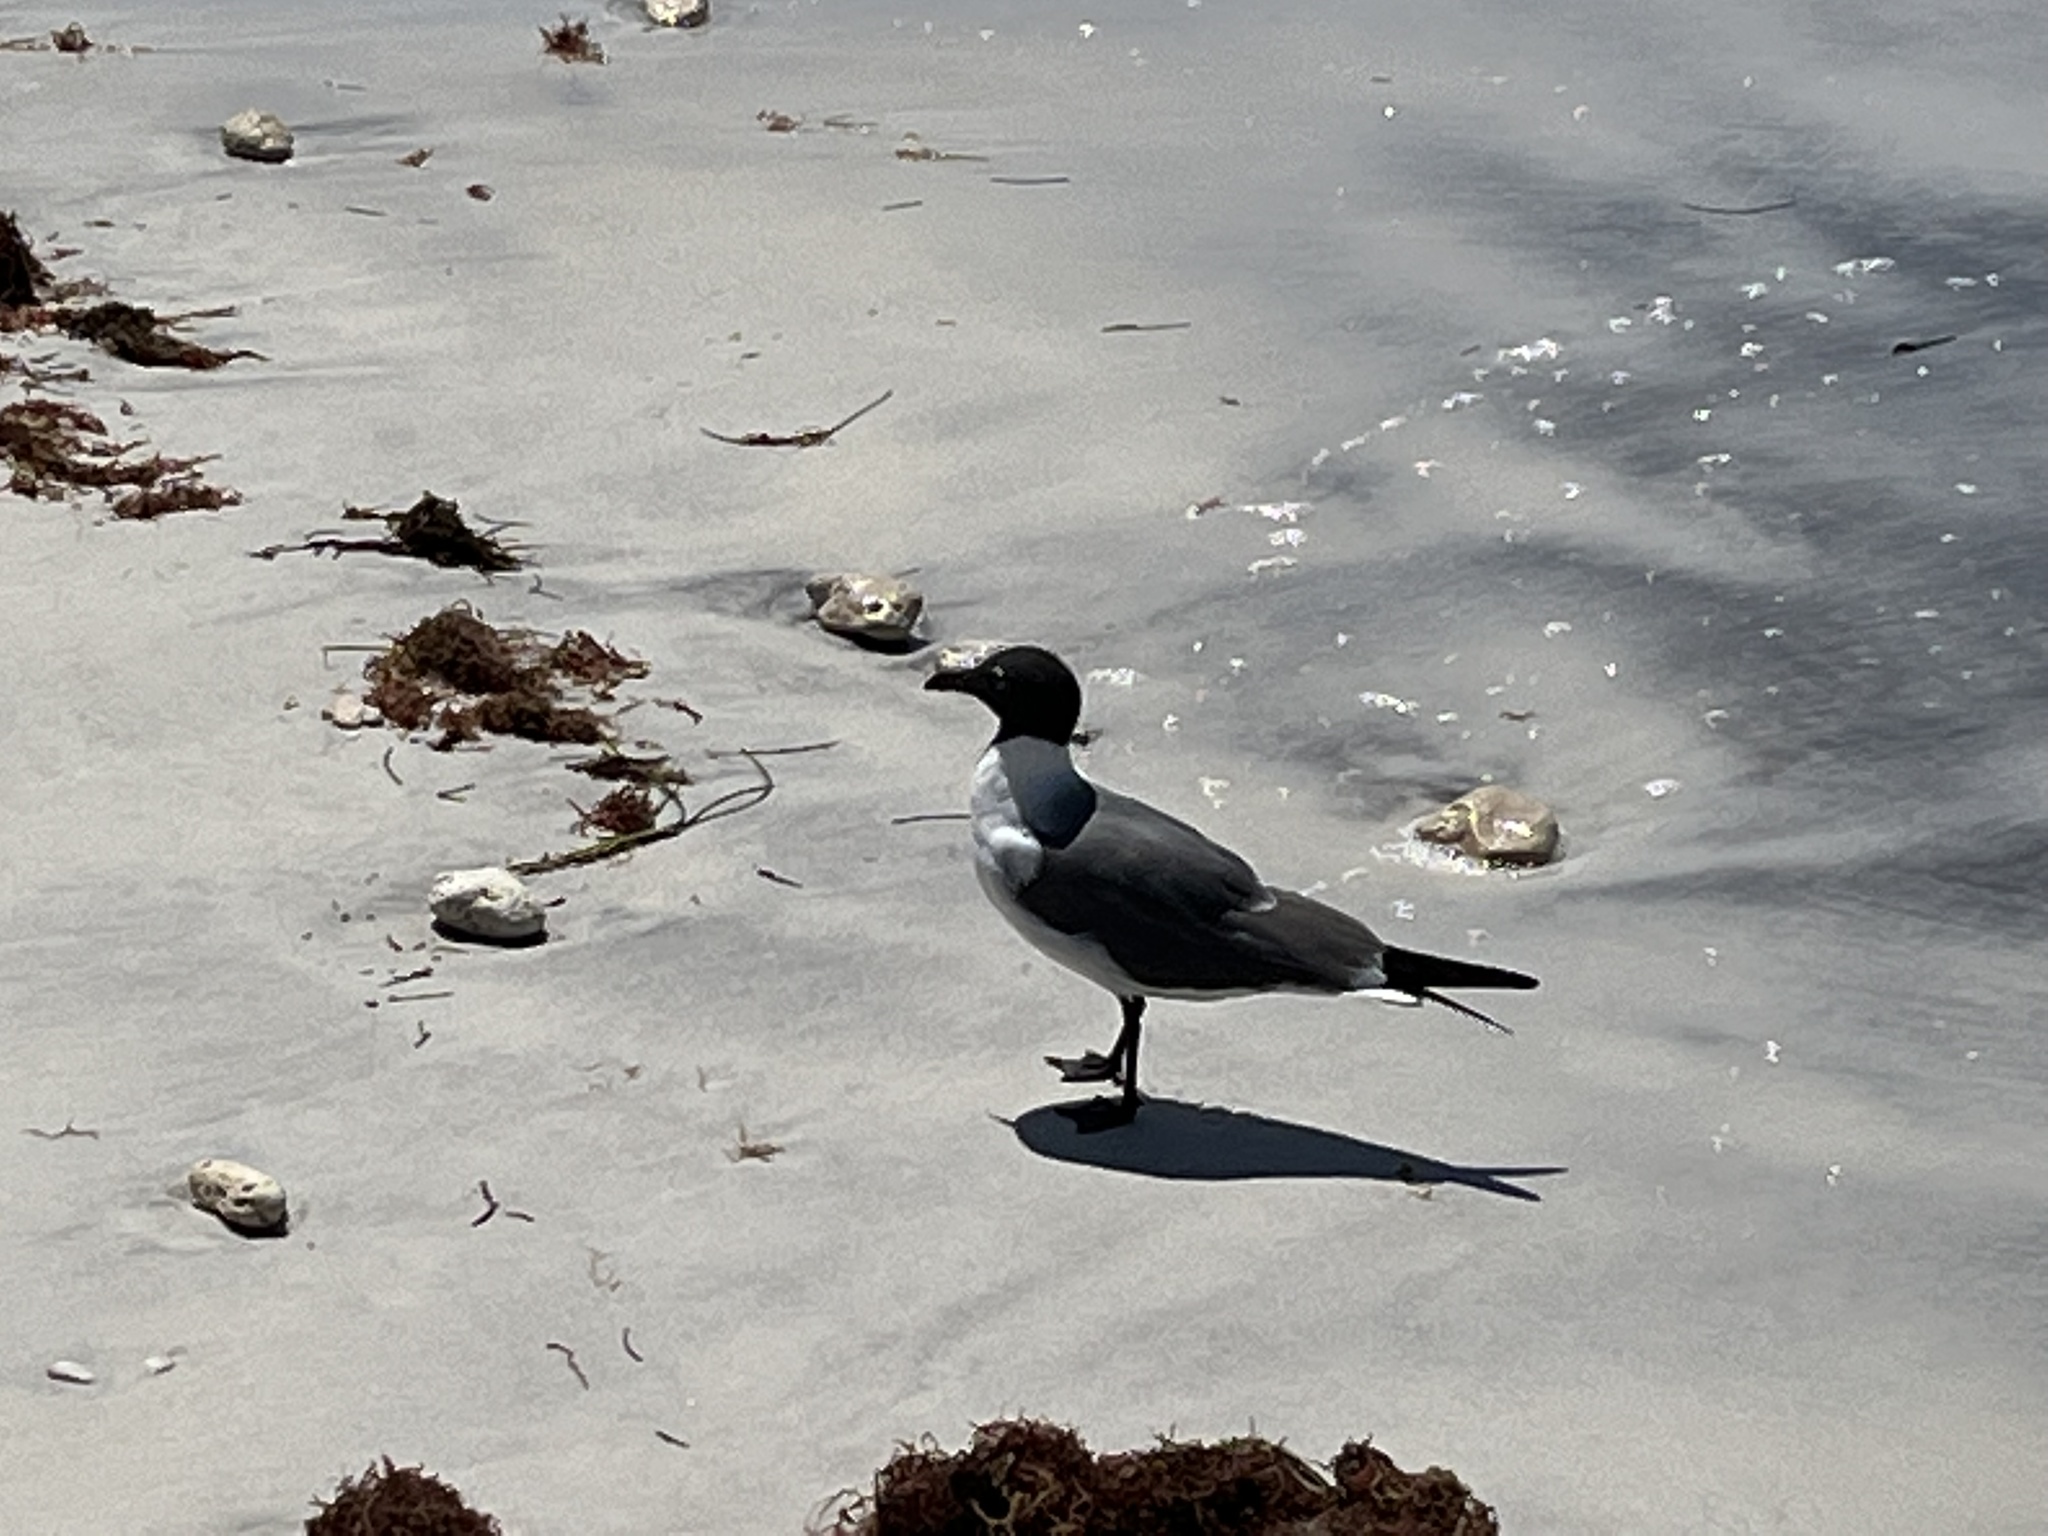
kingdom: Animalia
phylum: Chordata
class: Aves
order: Charadriiformes
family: Laridae
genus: Leucophaeus
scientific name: Leucophaeus atricilla
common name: Laughing gull
